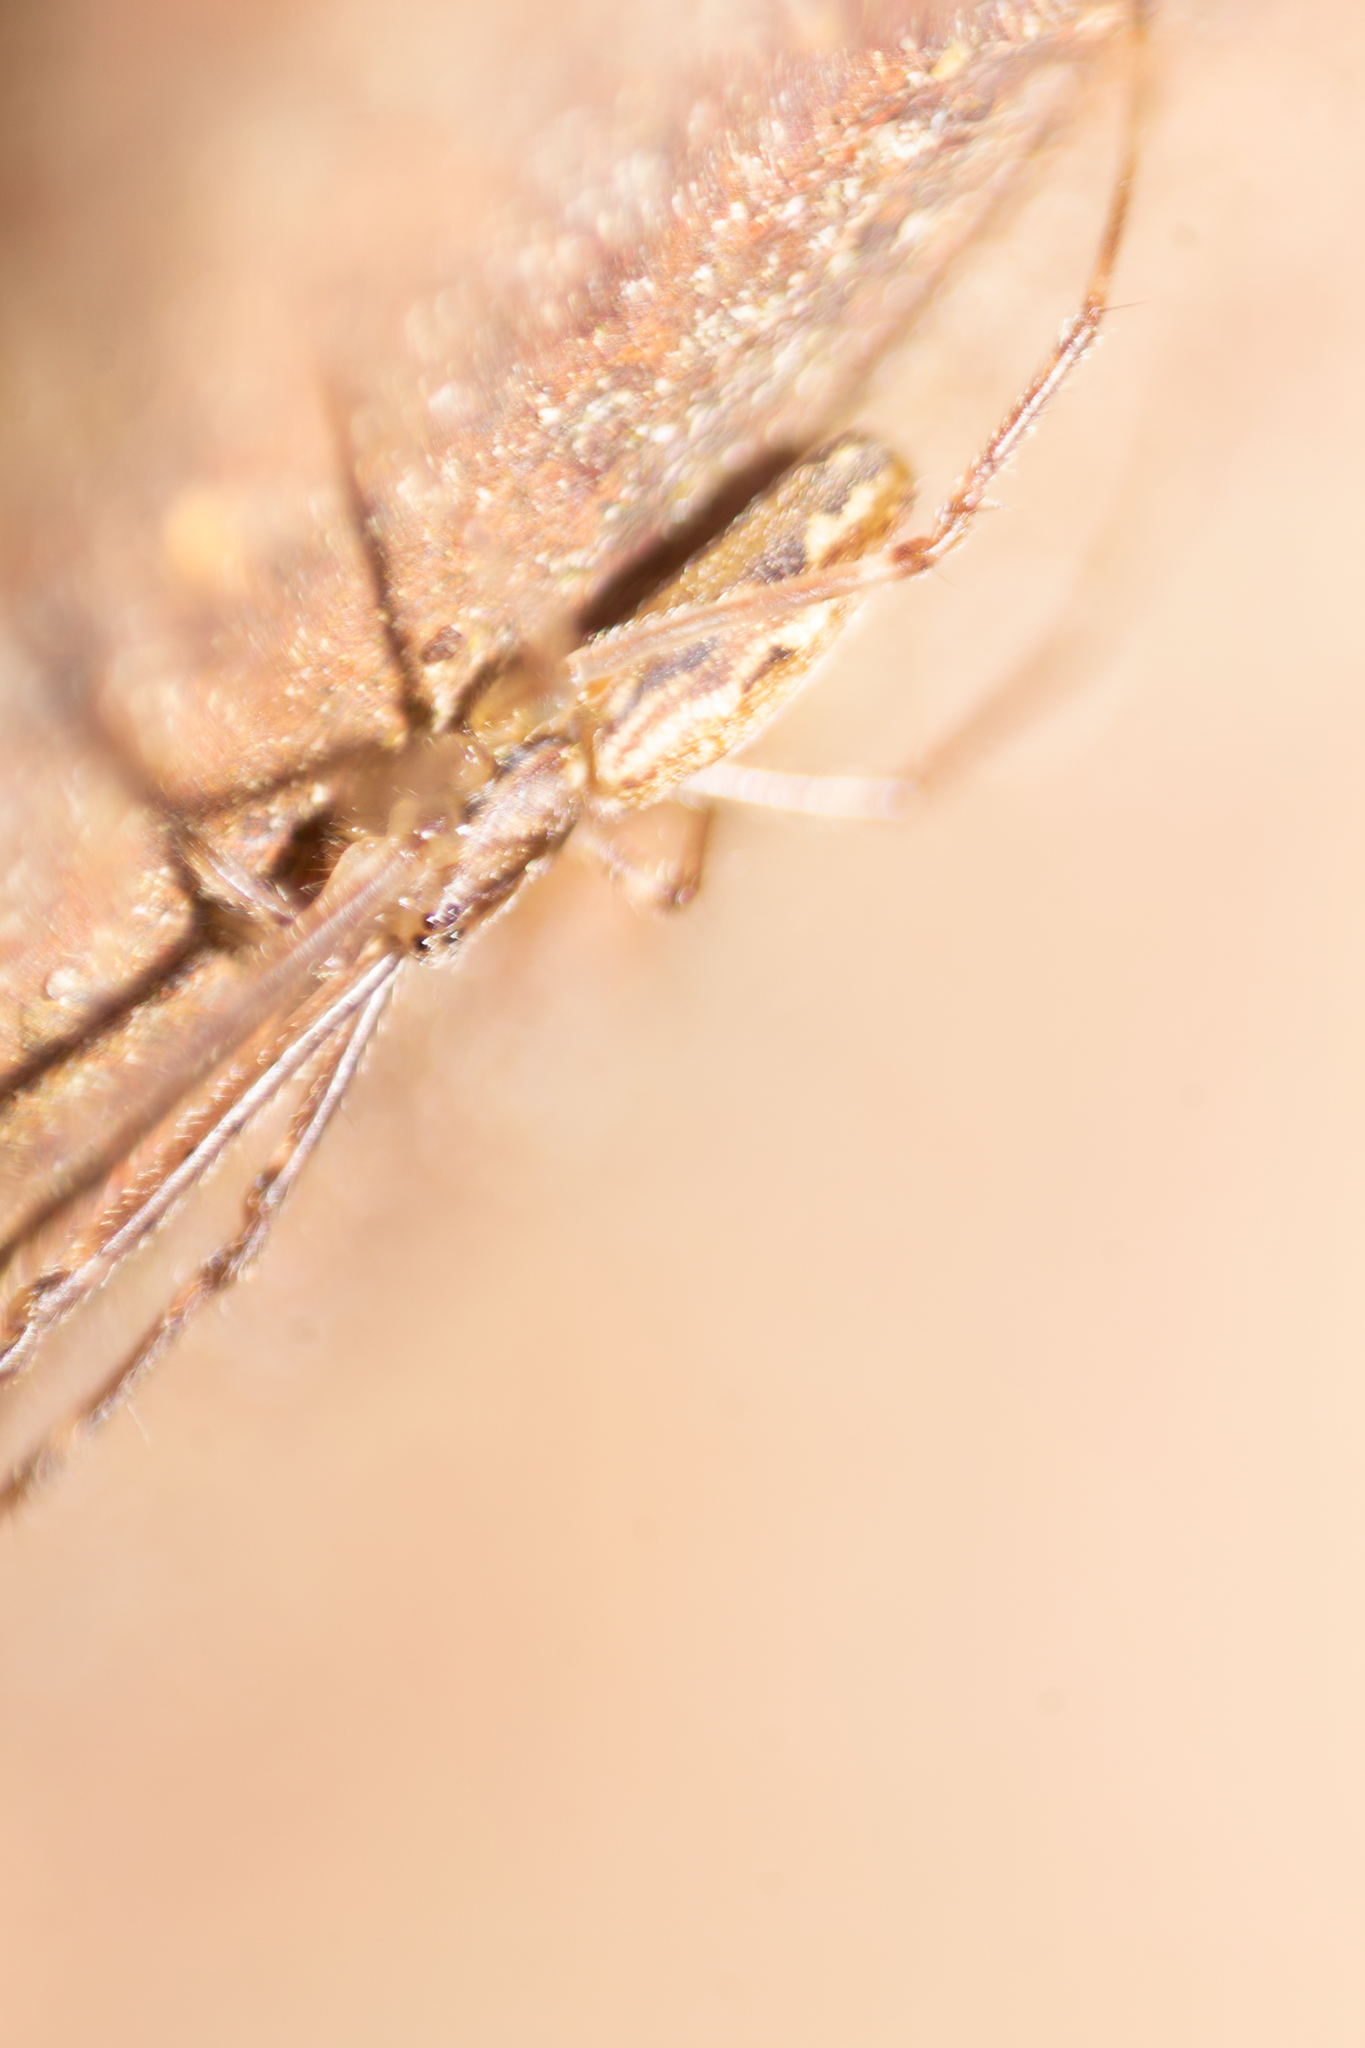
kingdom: Animalia
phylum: Arthropoda
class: Arachnida
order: Araneae
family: Tetragnathidae
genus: Tetragnatha
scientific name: Tetragnatha
